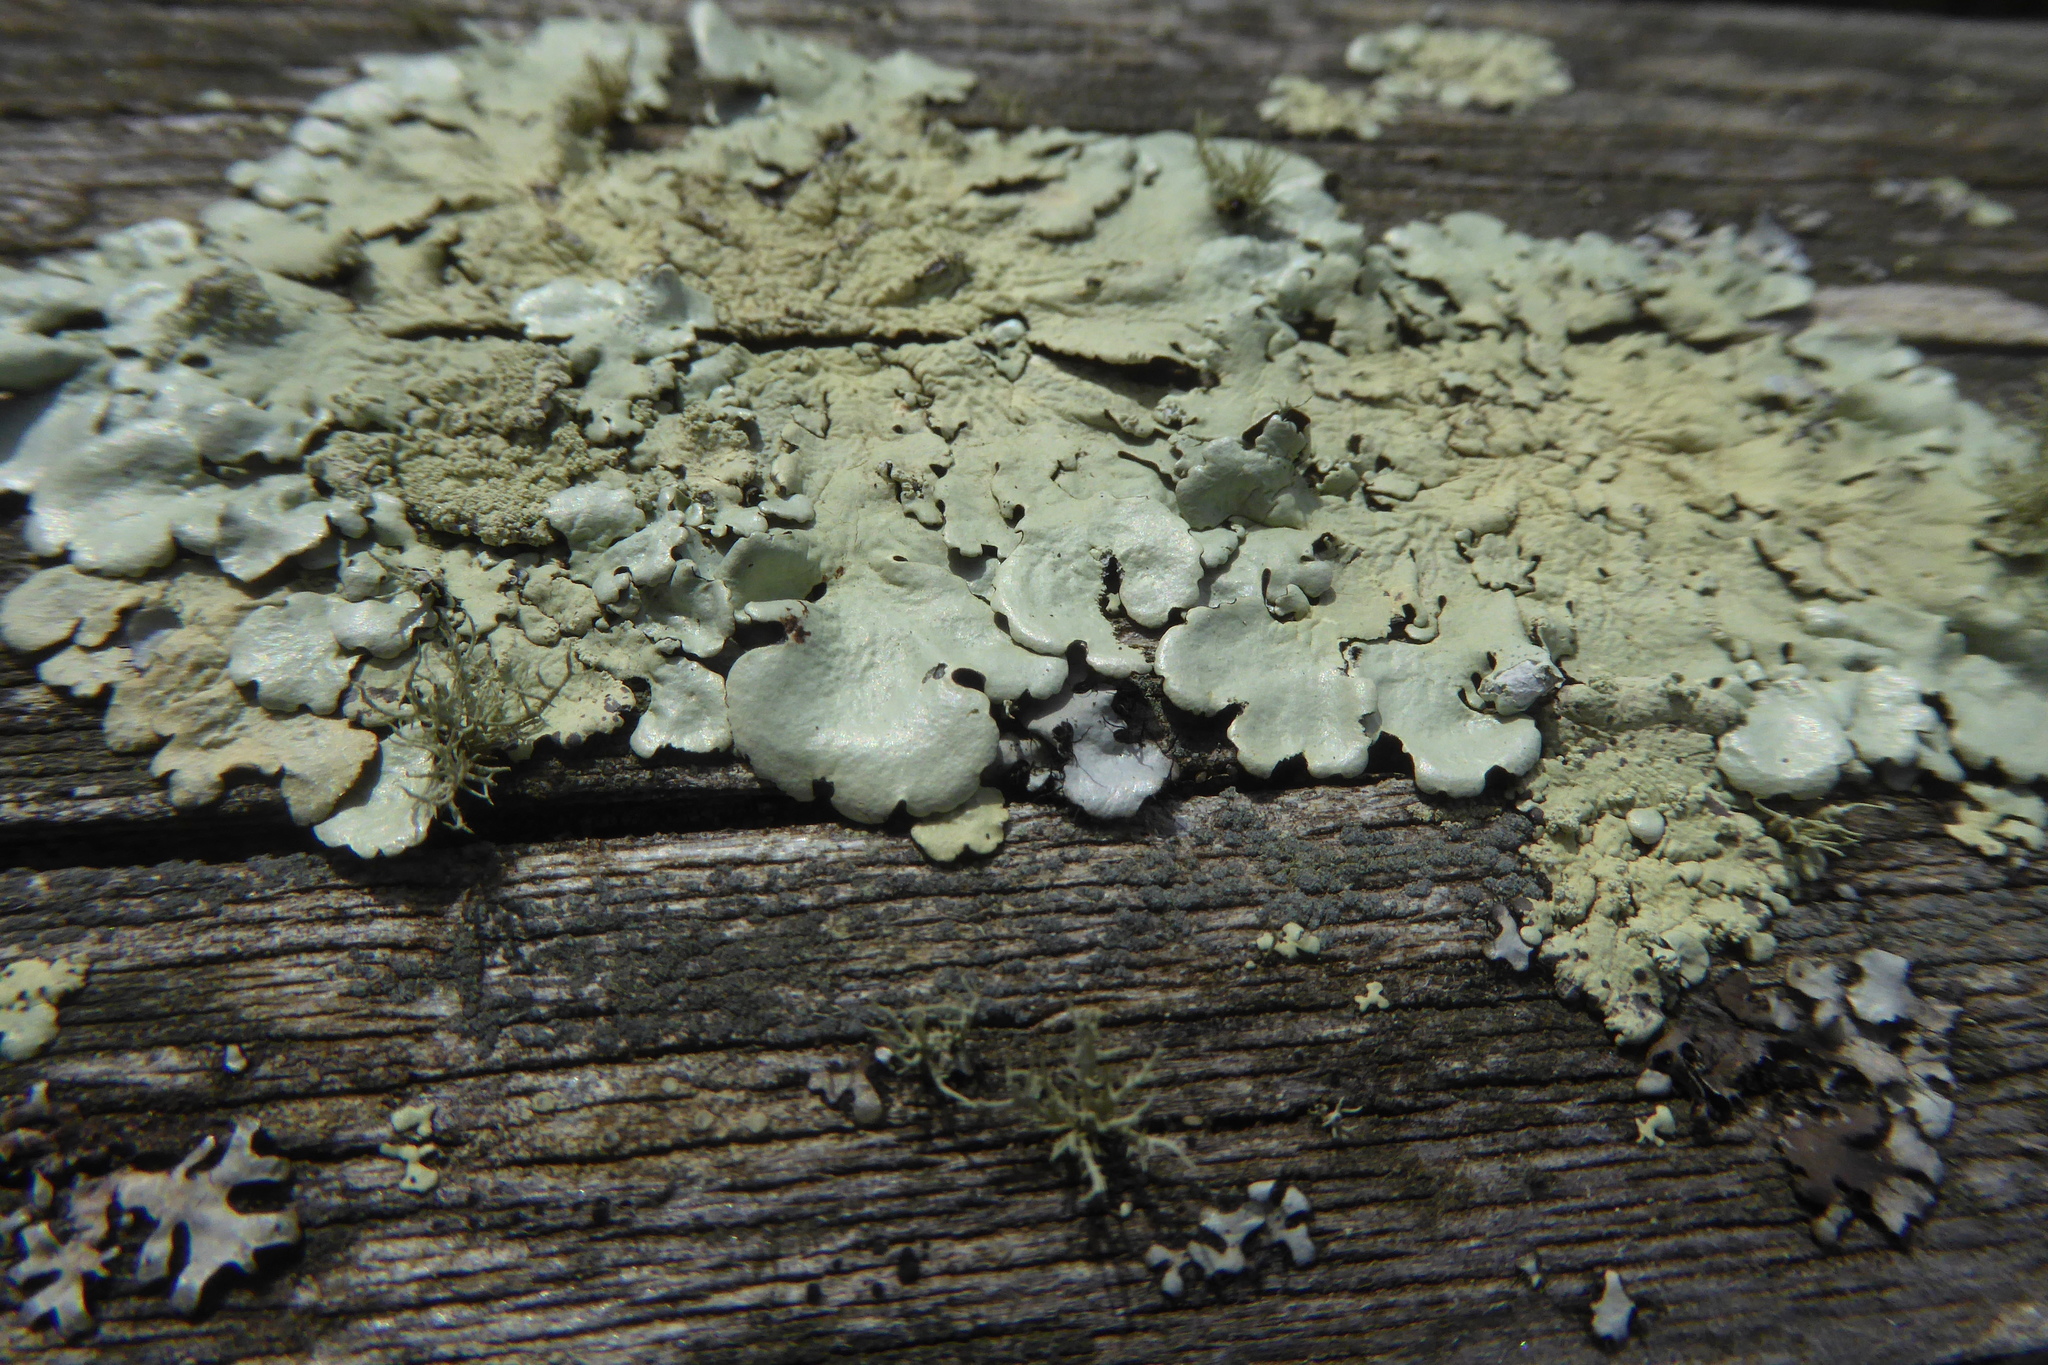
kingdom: Fungi
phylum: Ascomycota
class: Lecanoromycetes
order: Lecanorales
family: Parmeliaceae
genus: Flavoparmelia
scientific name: Flavoparmelia caperata
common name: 40-mile per hour lichen
